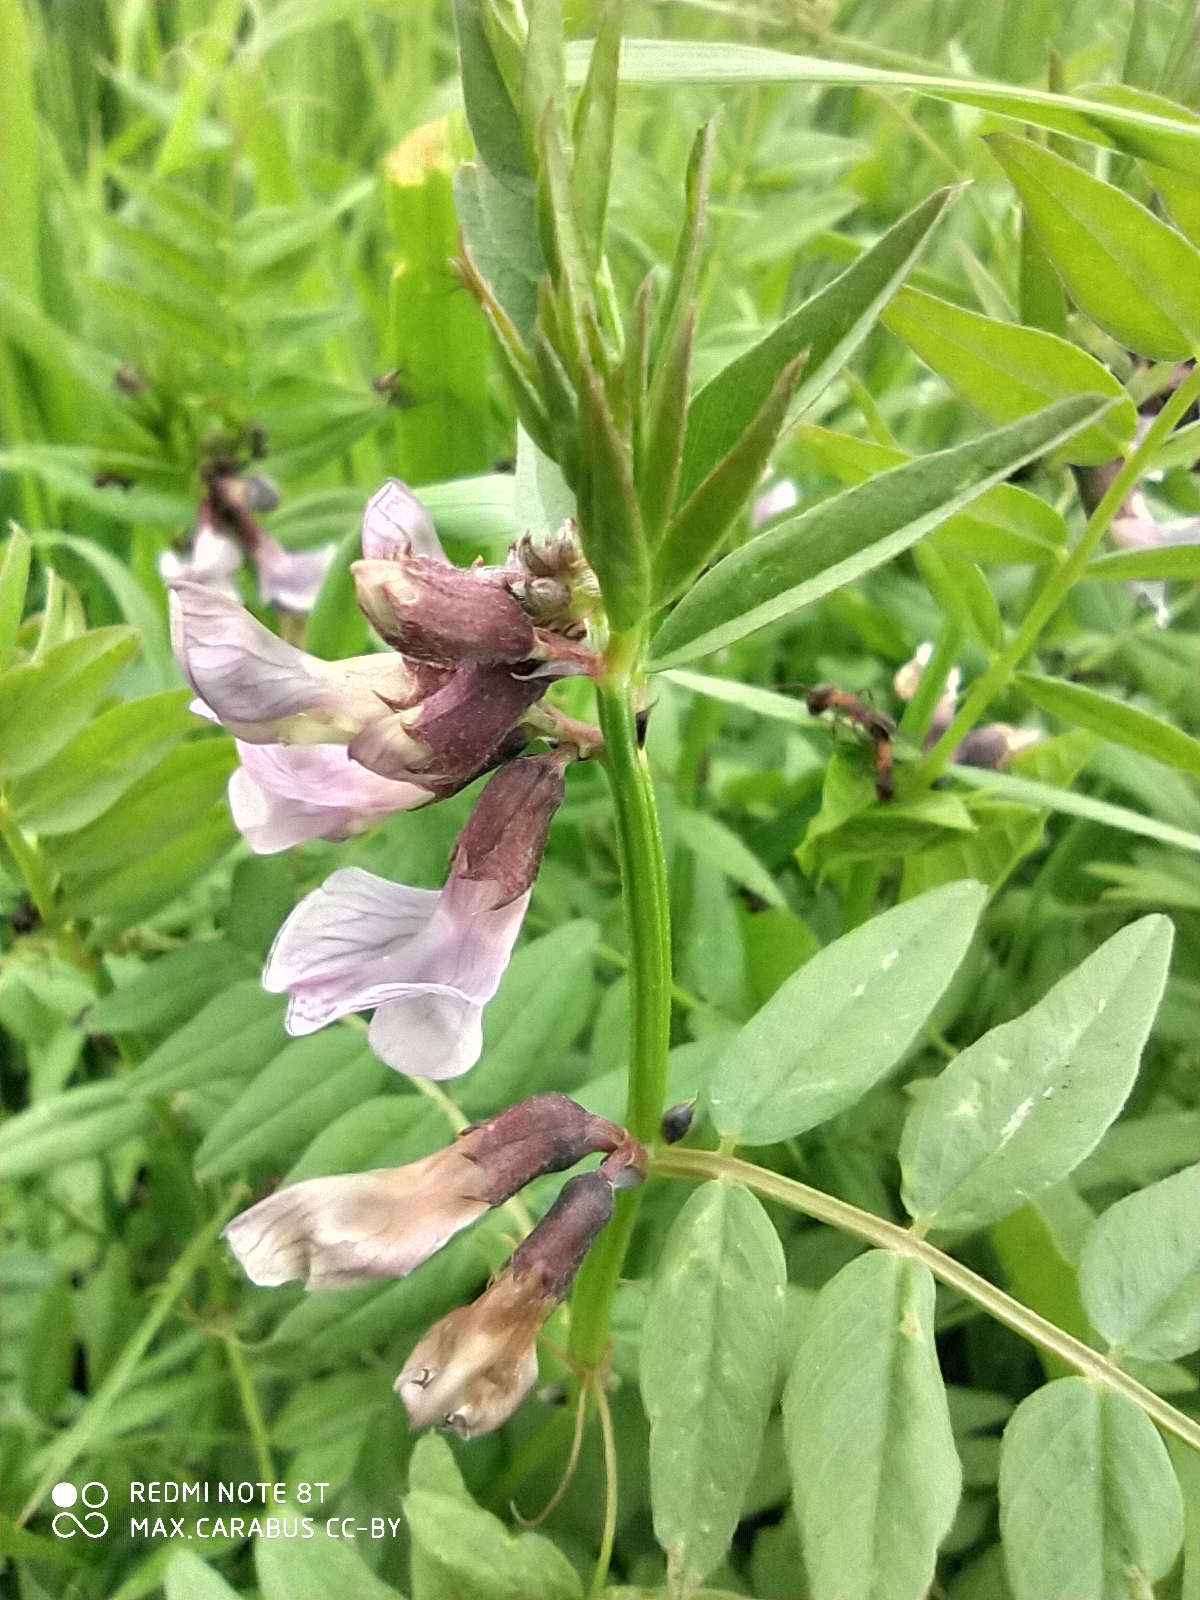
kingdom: Plantae
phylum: Tracheophyta
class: Magnoliopsida
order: Fabales
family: Fabaceae
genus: Vicia
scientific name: Vicia sepium
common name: Bush vetch
